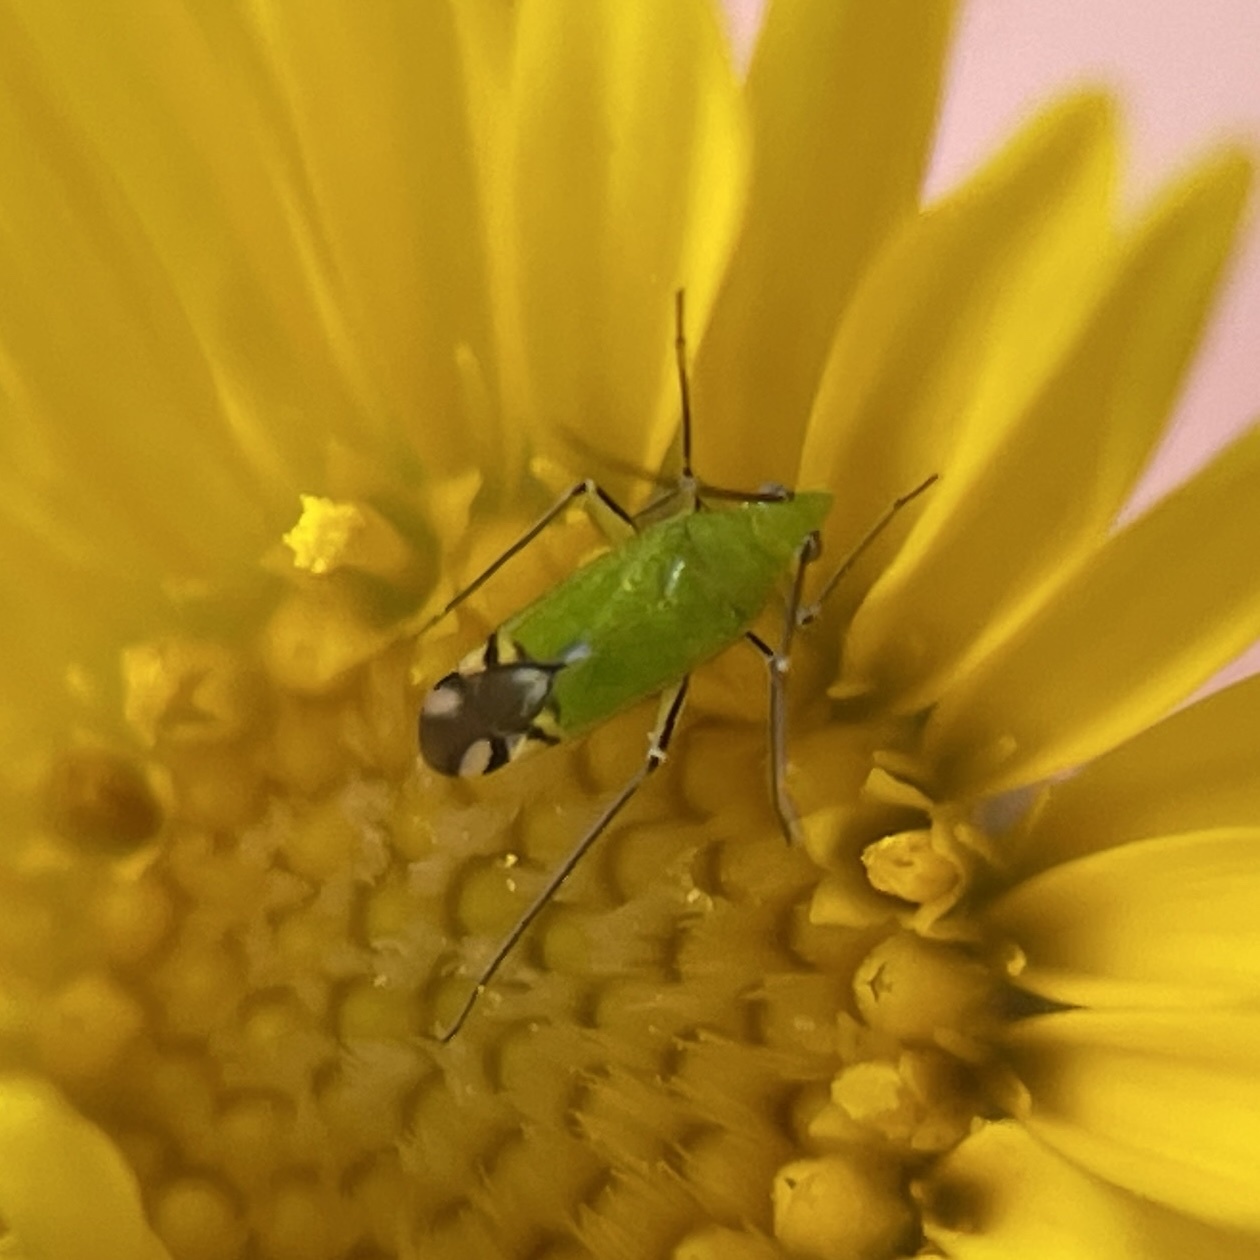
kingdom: Animalia
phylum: Arthropoda
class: Insecta
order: Hemiptera
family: Miridae
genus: Macrotylus
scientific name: Macrotylus amoenus
